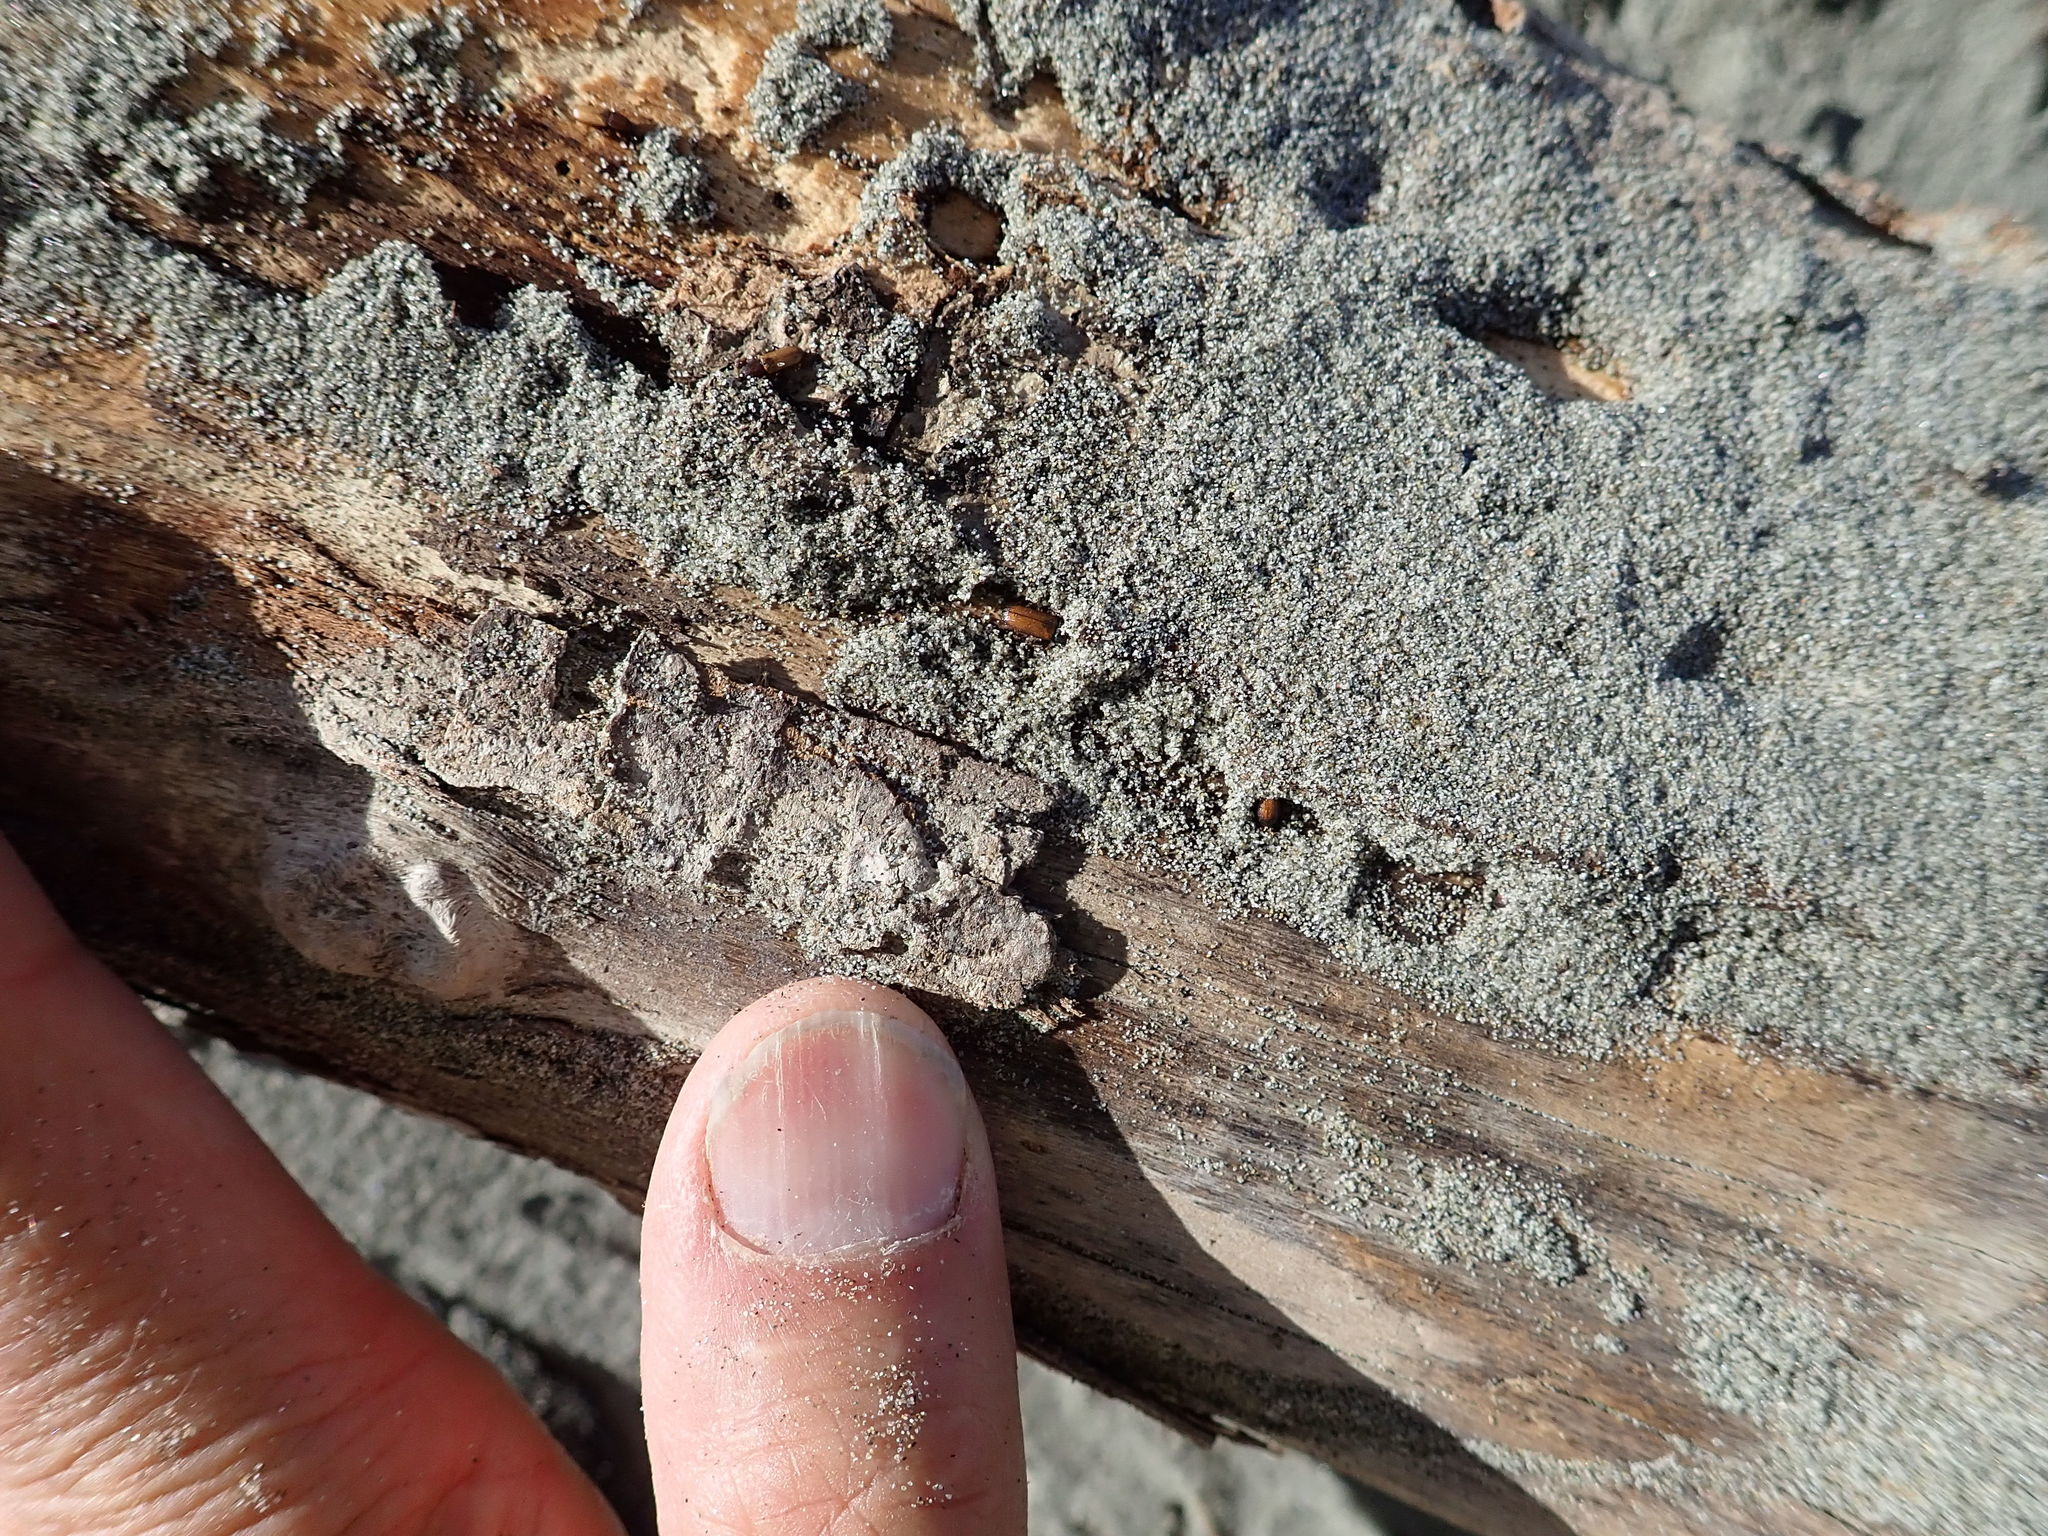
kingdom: Animalia
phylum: Arthropoda
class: Insecta
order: Coleoptera
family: Curculionidae
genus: Mesites
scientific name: Mesites pallidipennis
